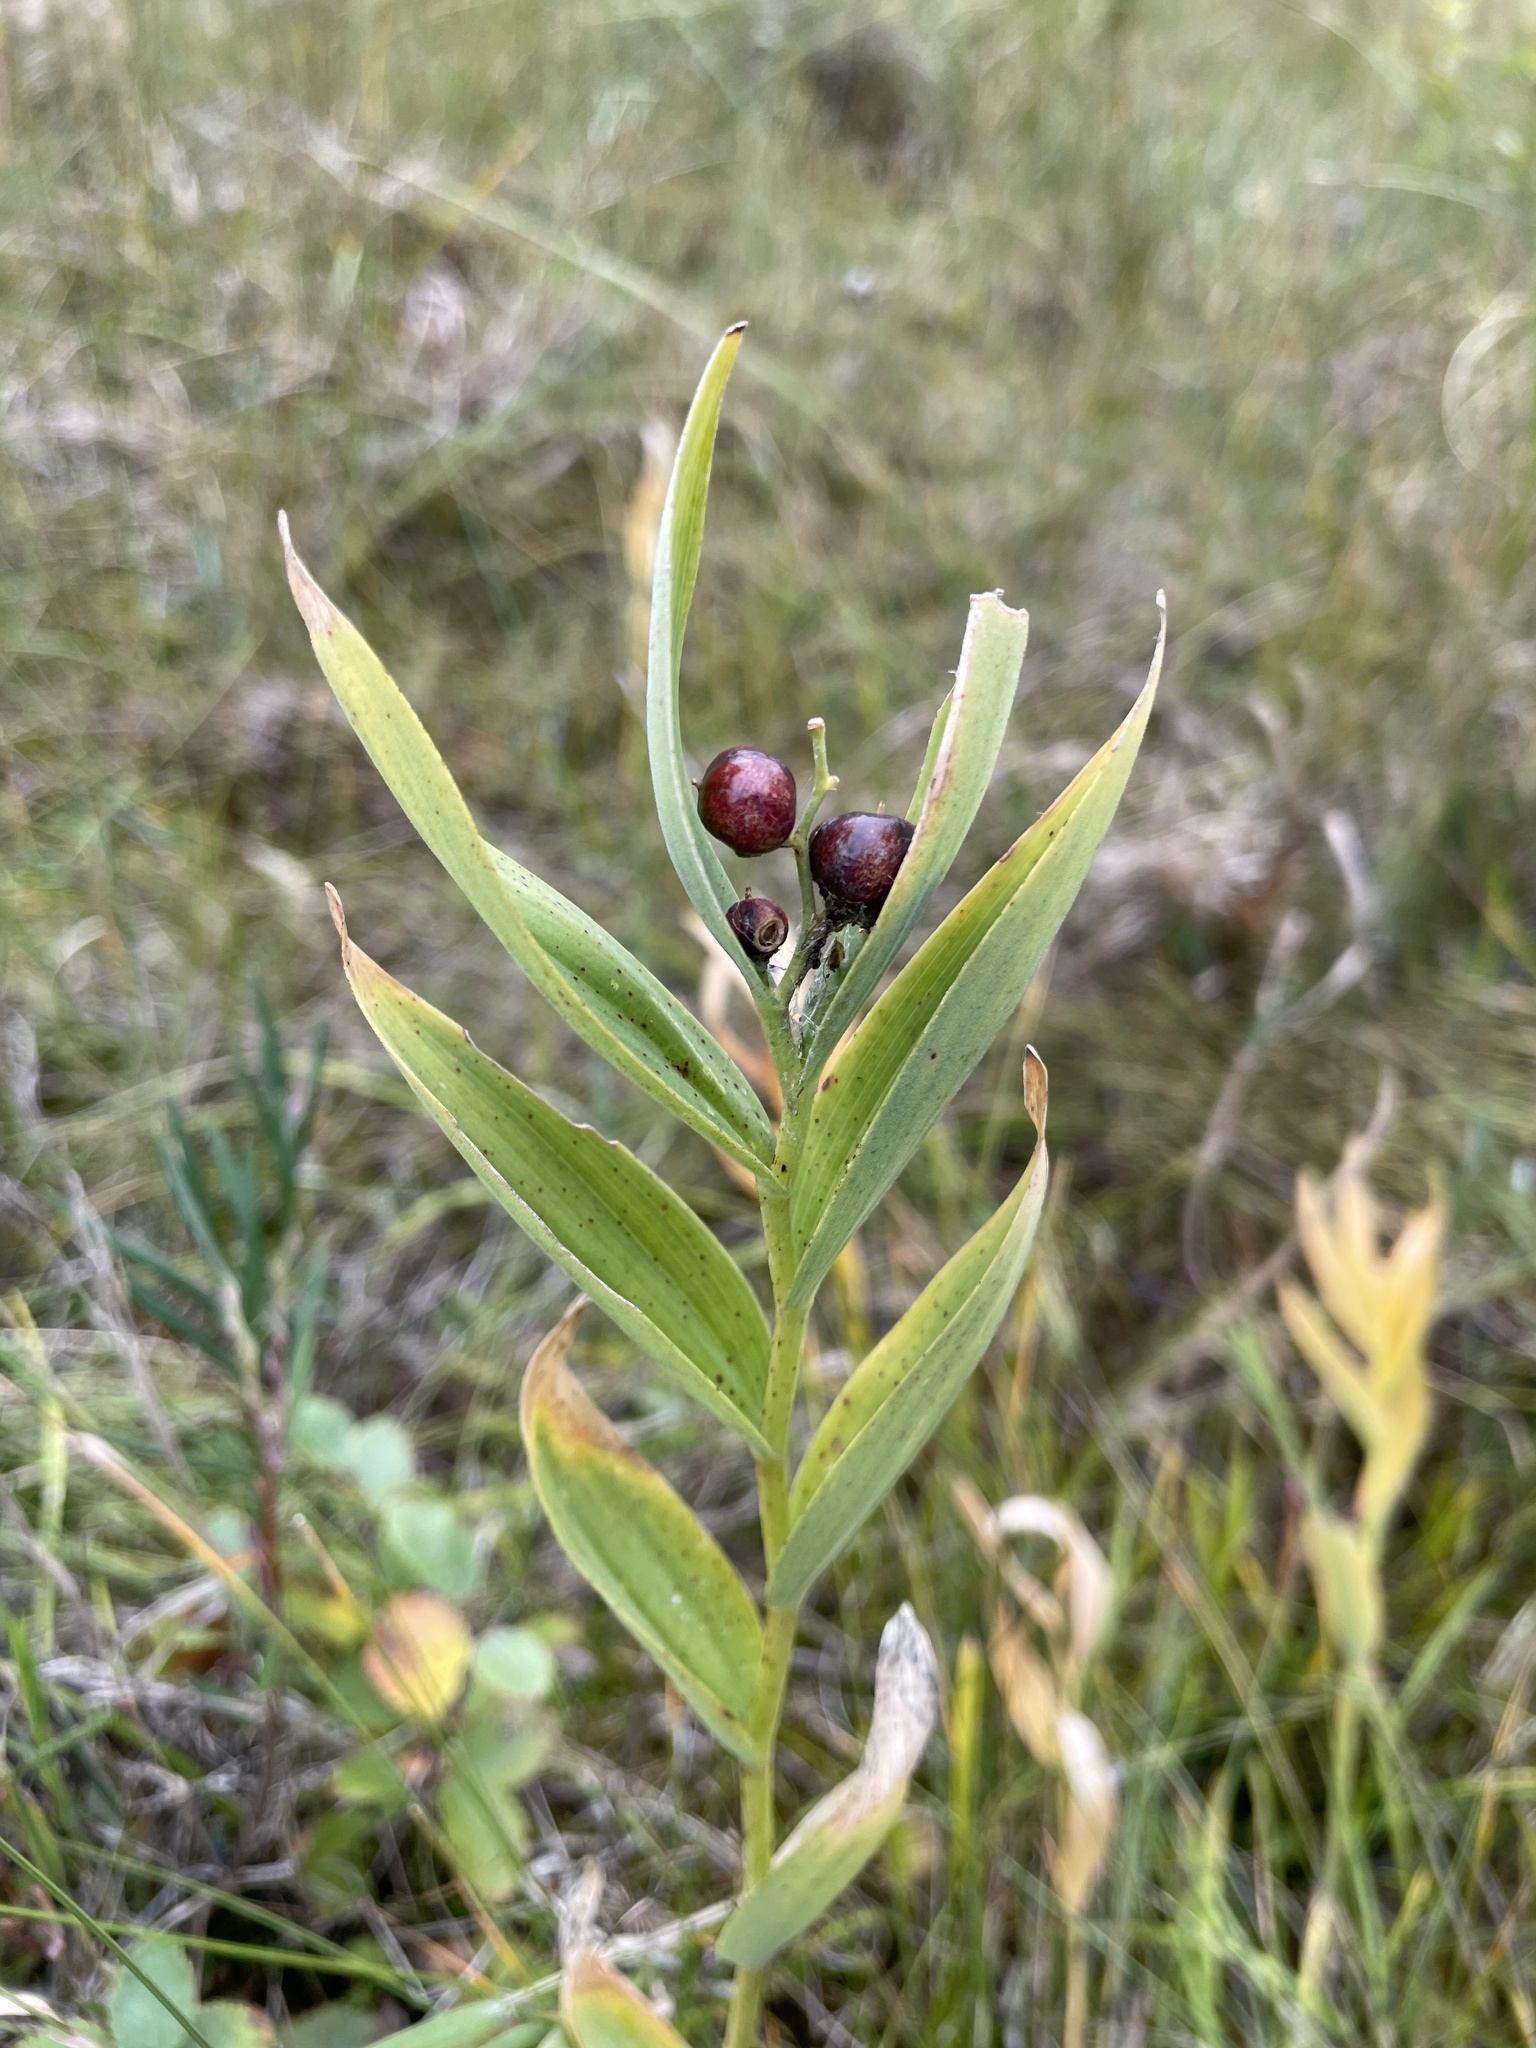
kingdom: Plantae
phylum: Tracheophyta
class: Liliopsida
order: Asparagales
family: Asparagaceae
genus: Maianthemum
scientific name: Maianthemum stellatum
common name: Little false solomon's seal
